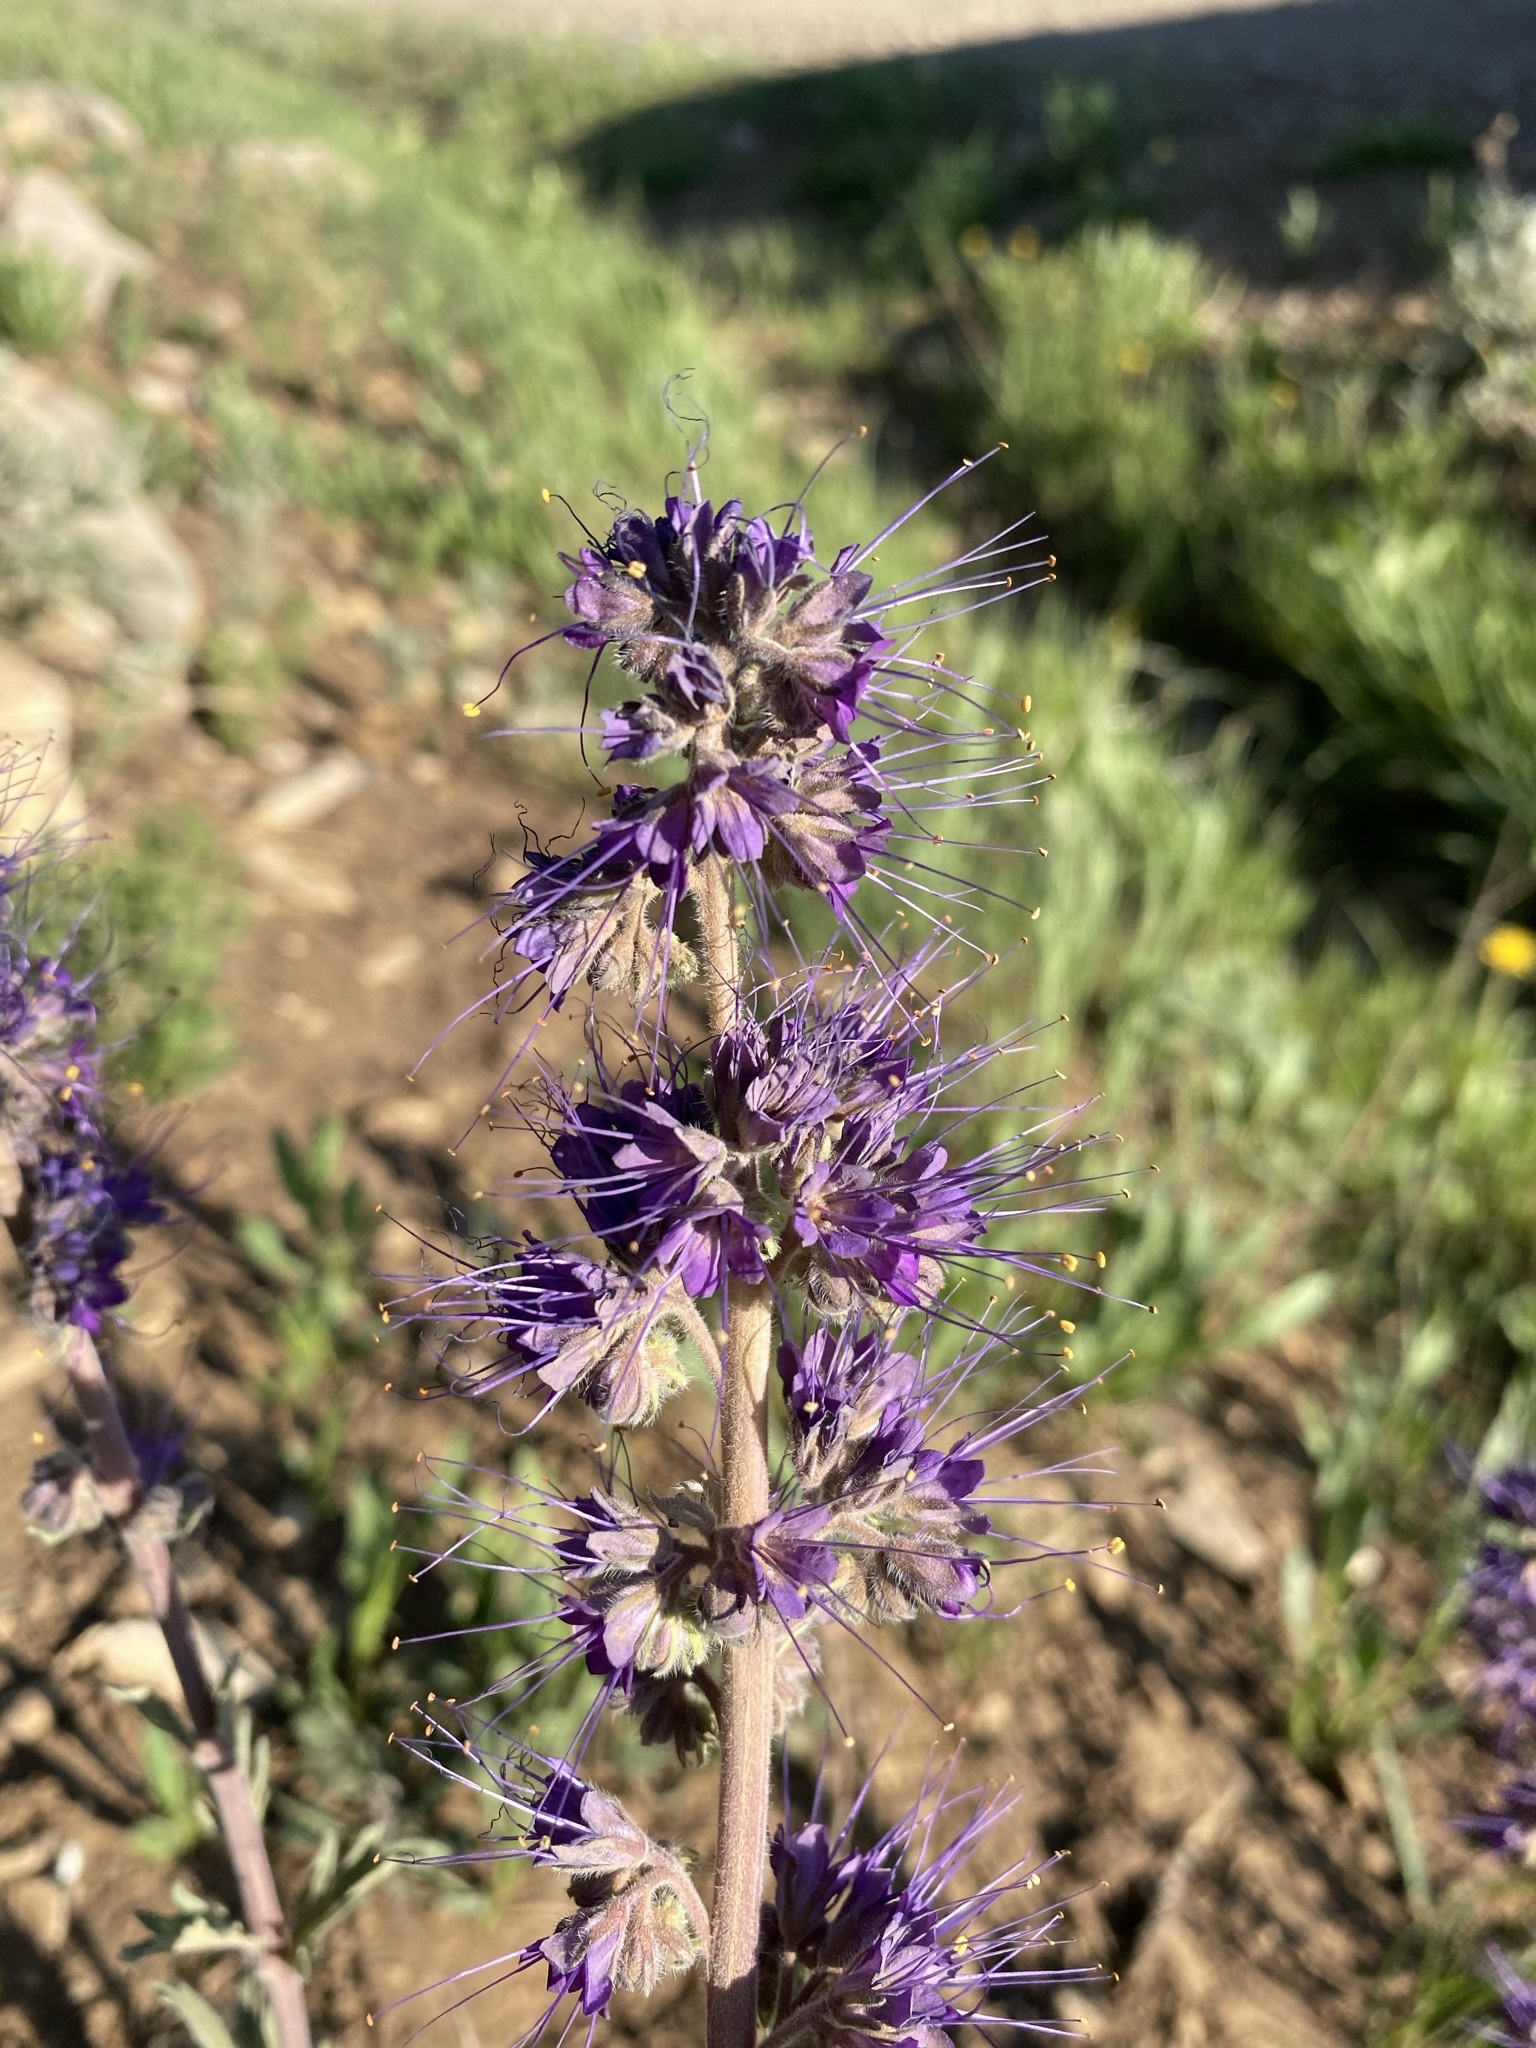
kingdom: Plantae
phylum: Tracheophyta
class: Magnoliopsida
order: Boraginales
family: Hydrophyllaceae
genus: Phacelia
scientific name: Phacelia sericea
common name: Silky phacelia
